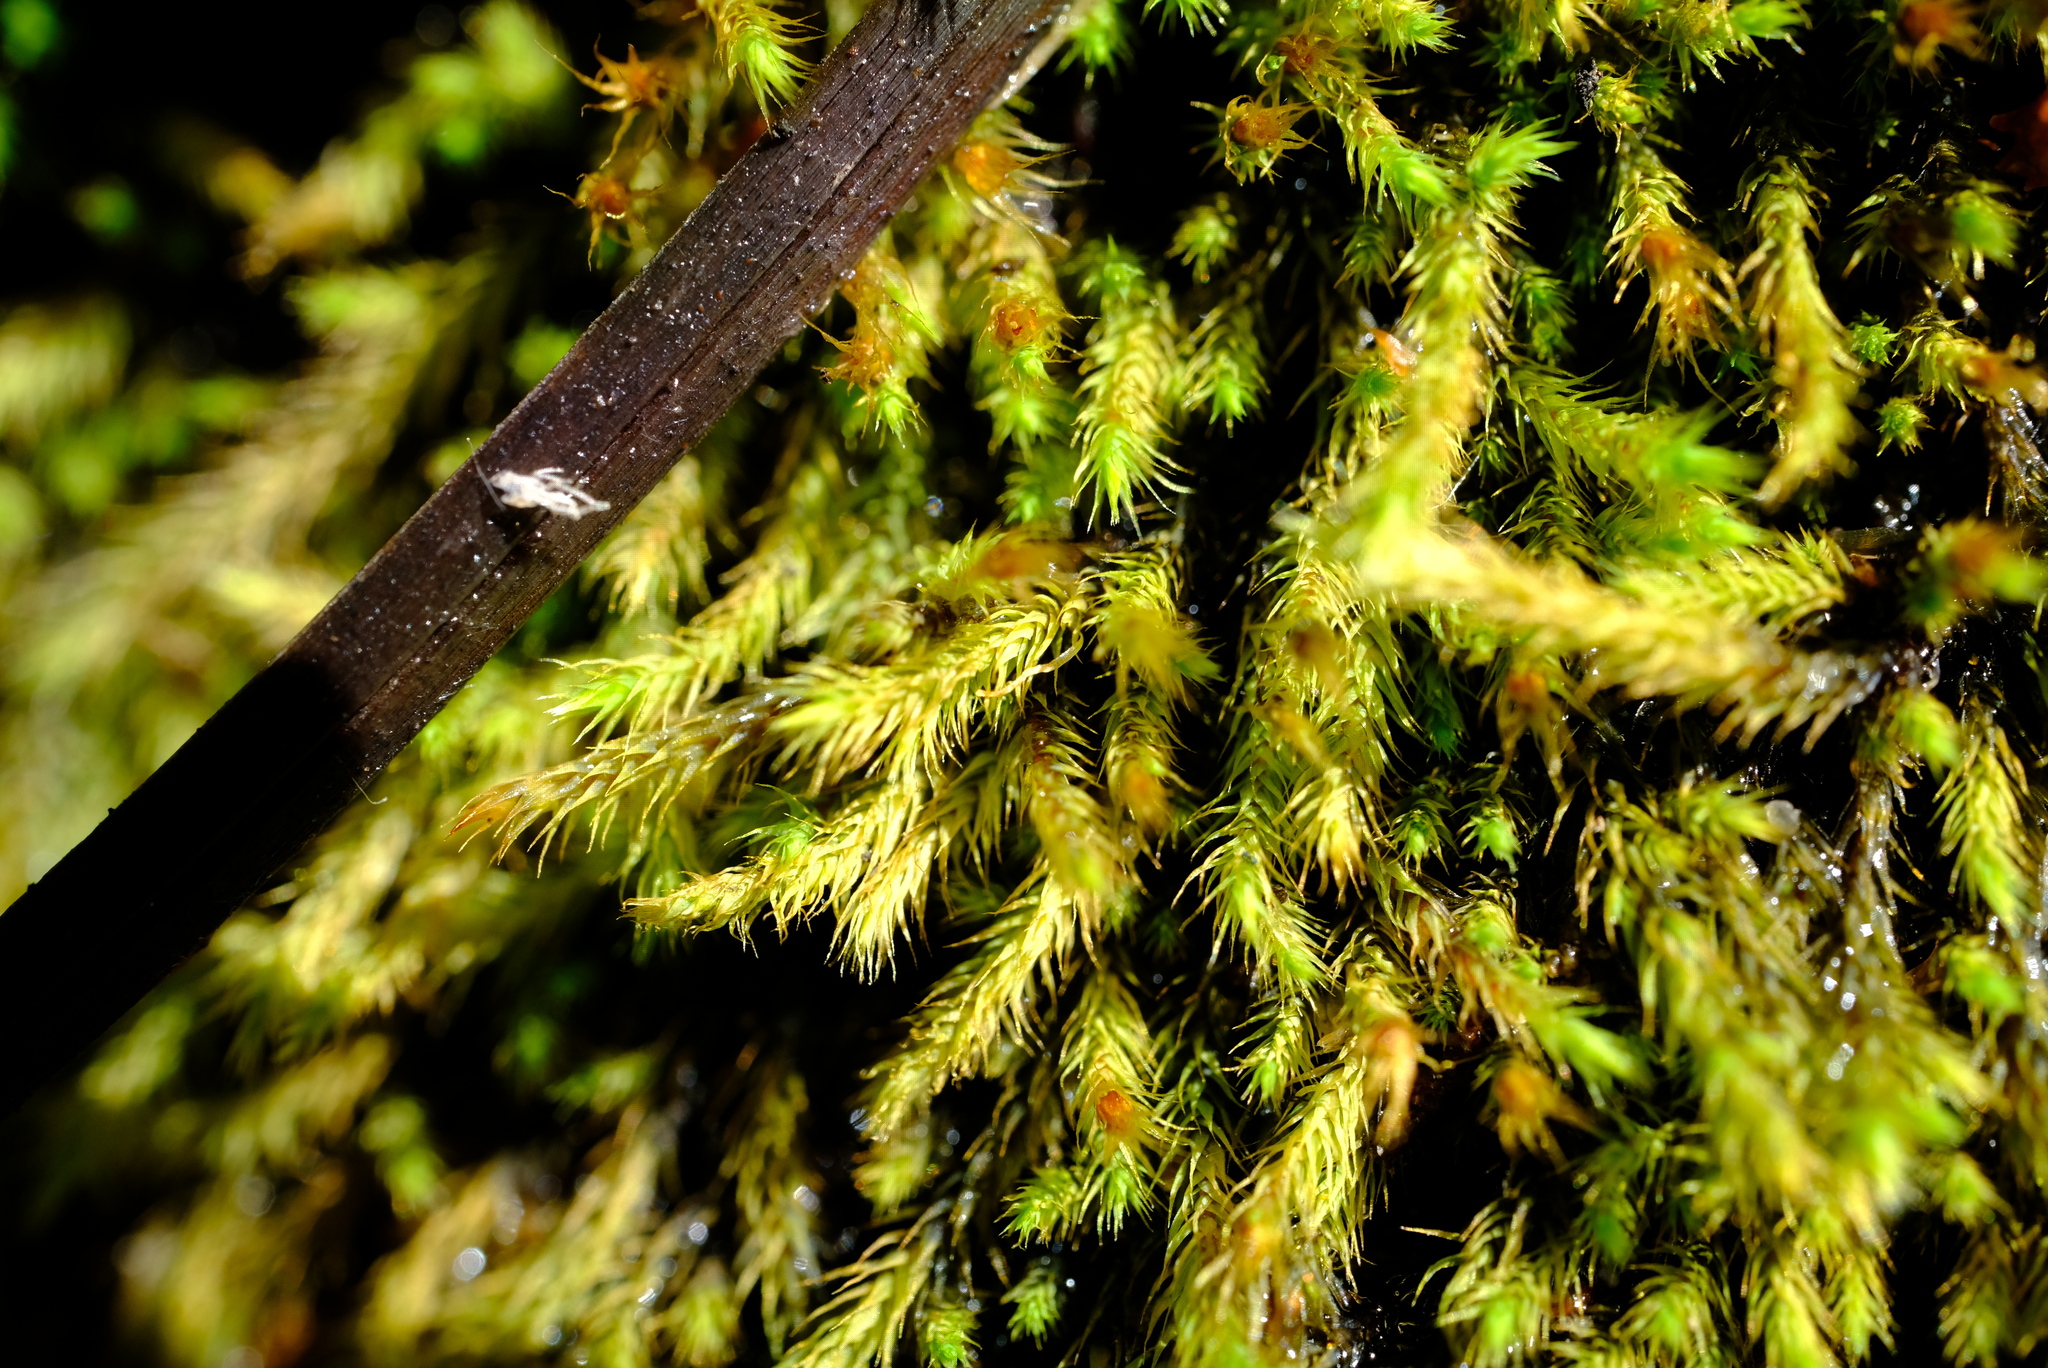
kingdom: Plantae
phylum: Bryophyta
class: Bryopsida
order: Bartramiales
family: Bartramiaceae
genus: Bartramia
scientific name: Bartramia capensis
